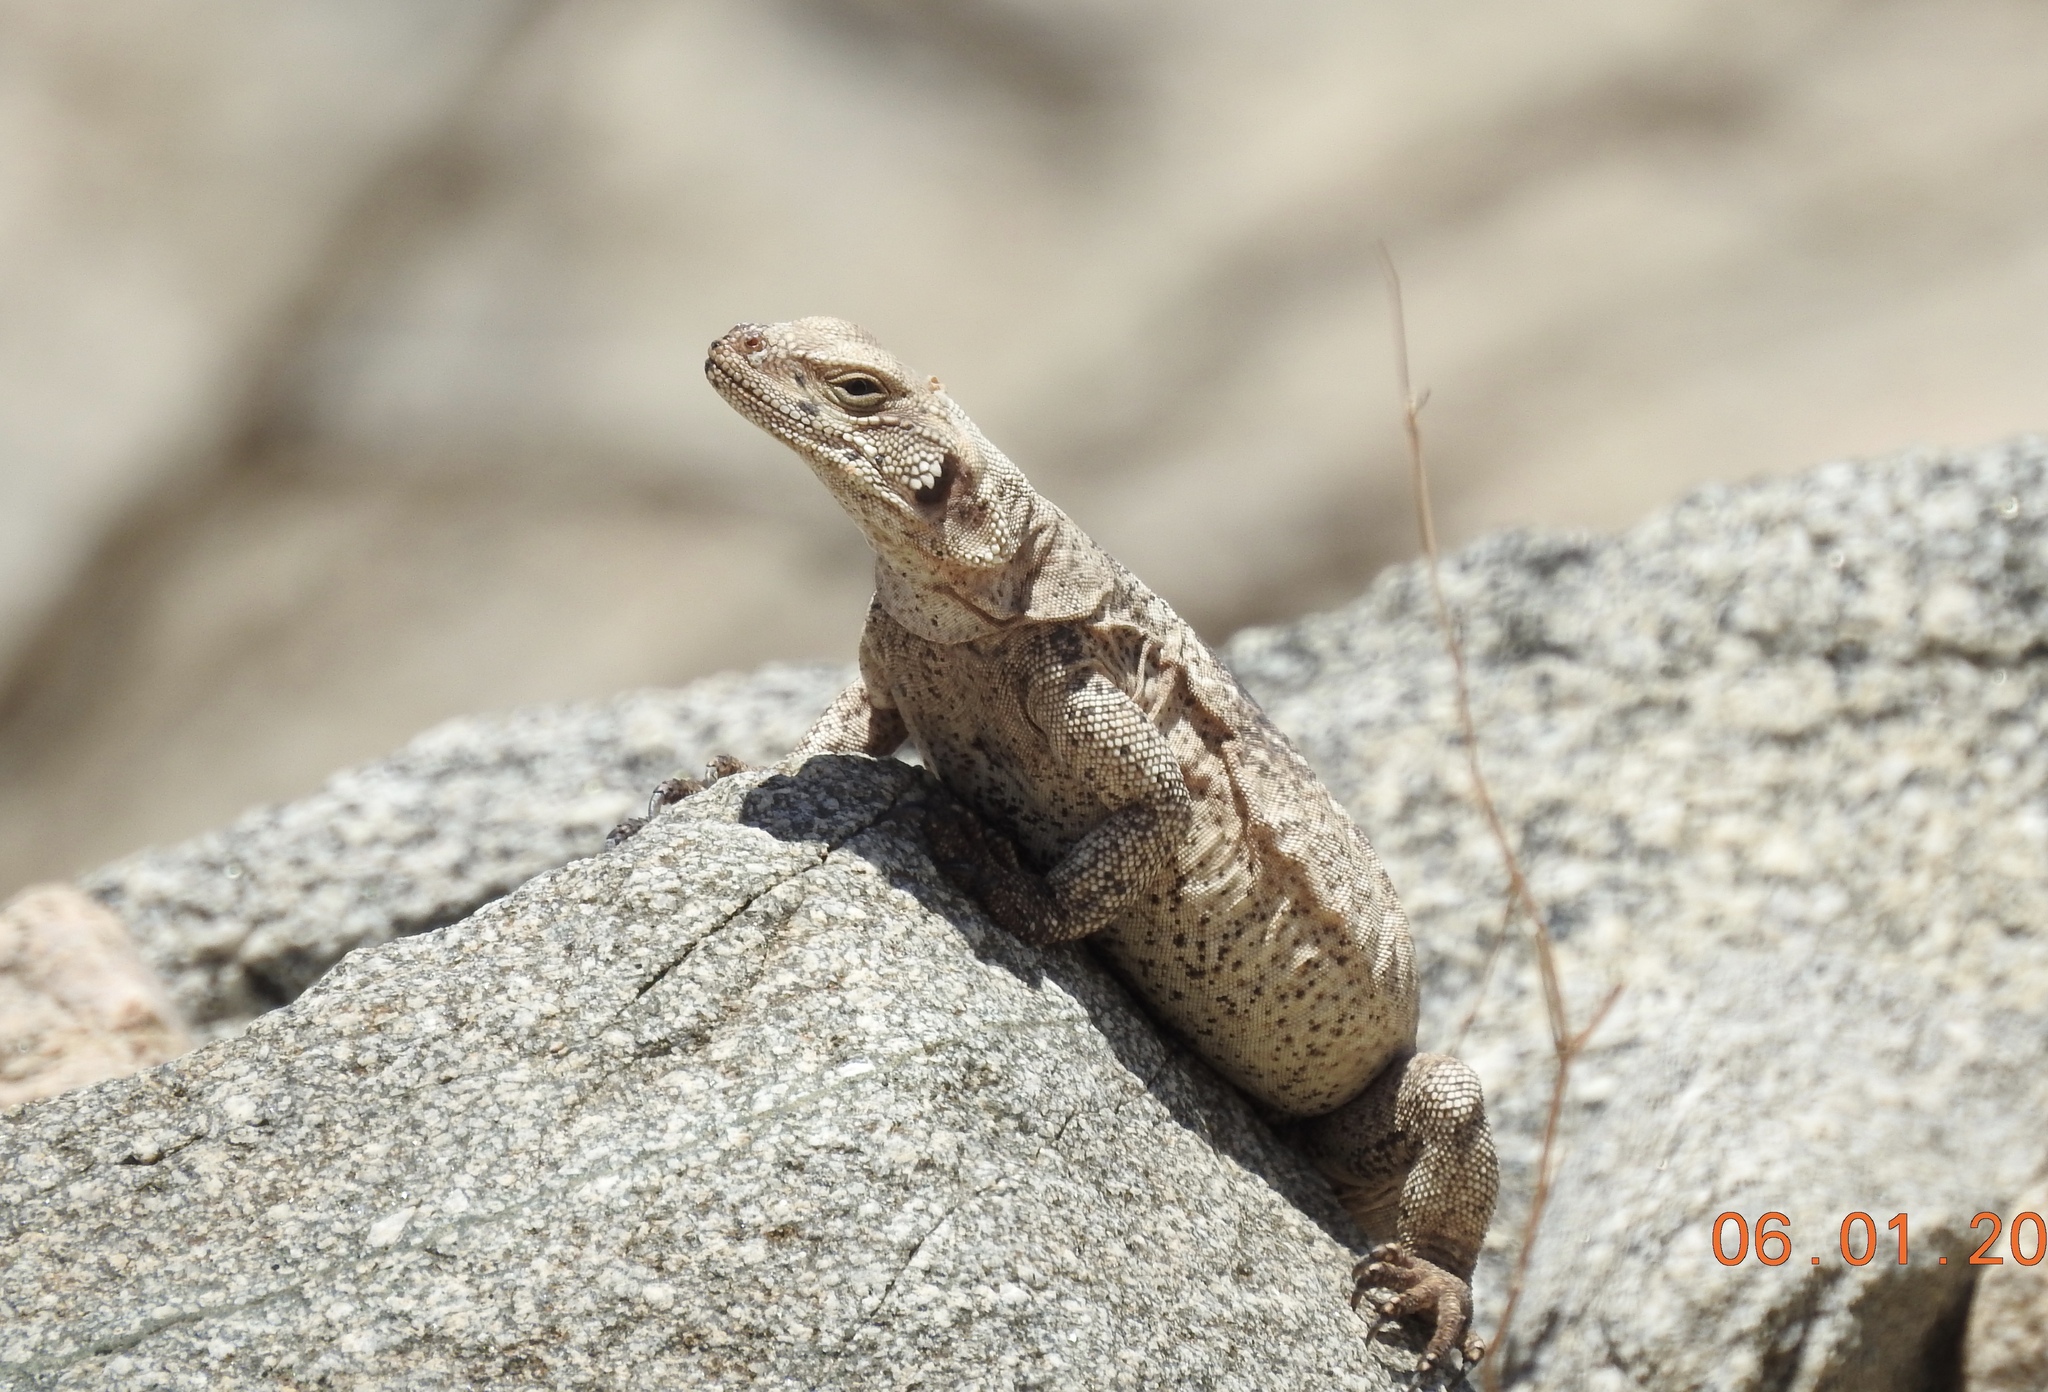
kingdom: Animalia
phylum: Chordata
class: Squamata
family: Iguanidae
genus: Sauromalus
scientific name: Sauromalus ater
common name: Northern chuckwalla
